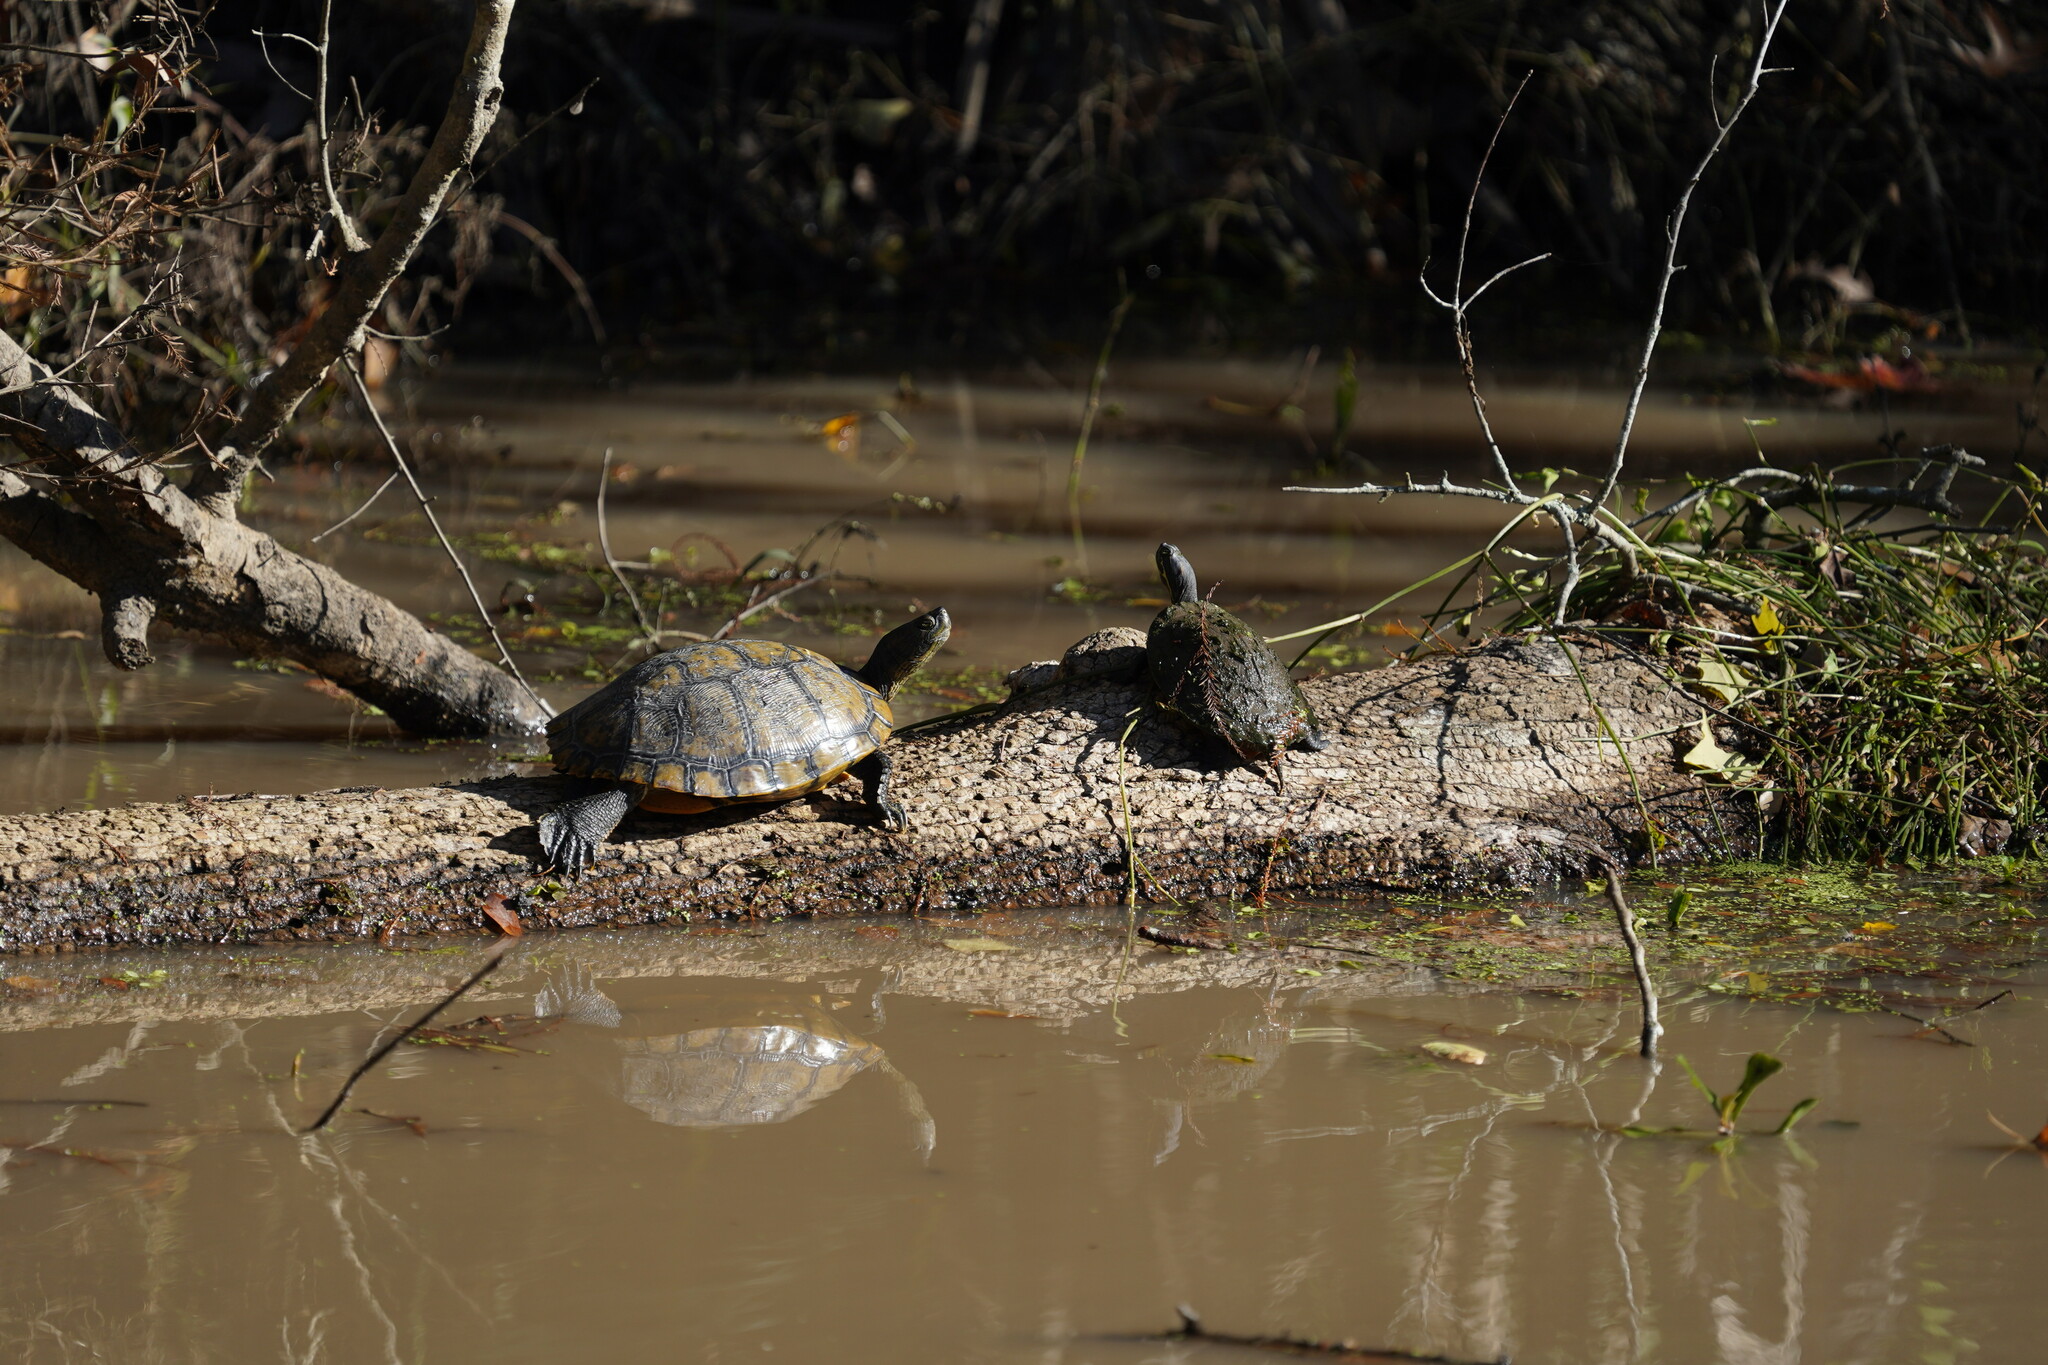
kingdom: Animalia
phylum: Chordata
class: Testudines
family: Emydidae
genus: Trachemys
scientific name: Trachemys scripta
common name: Slider
